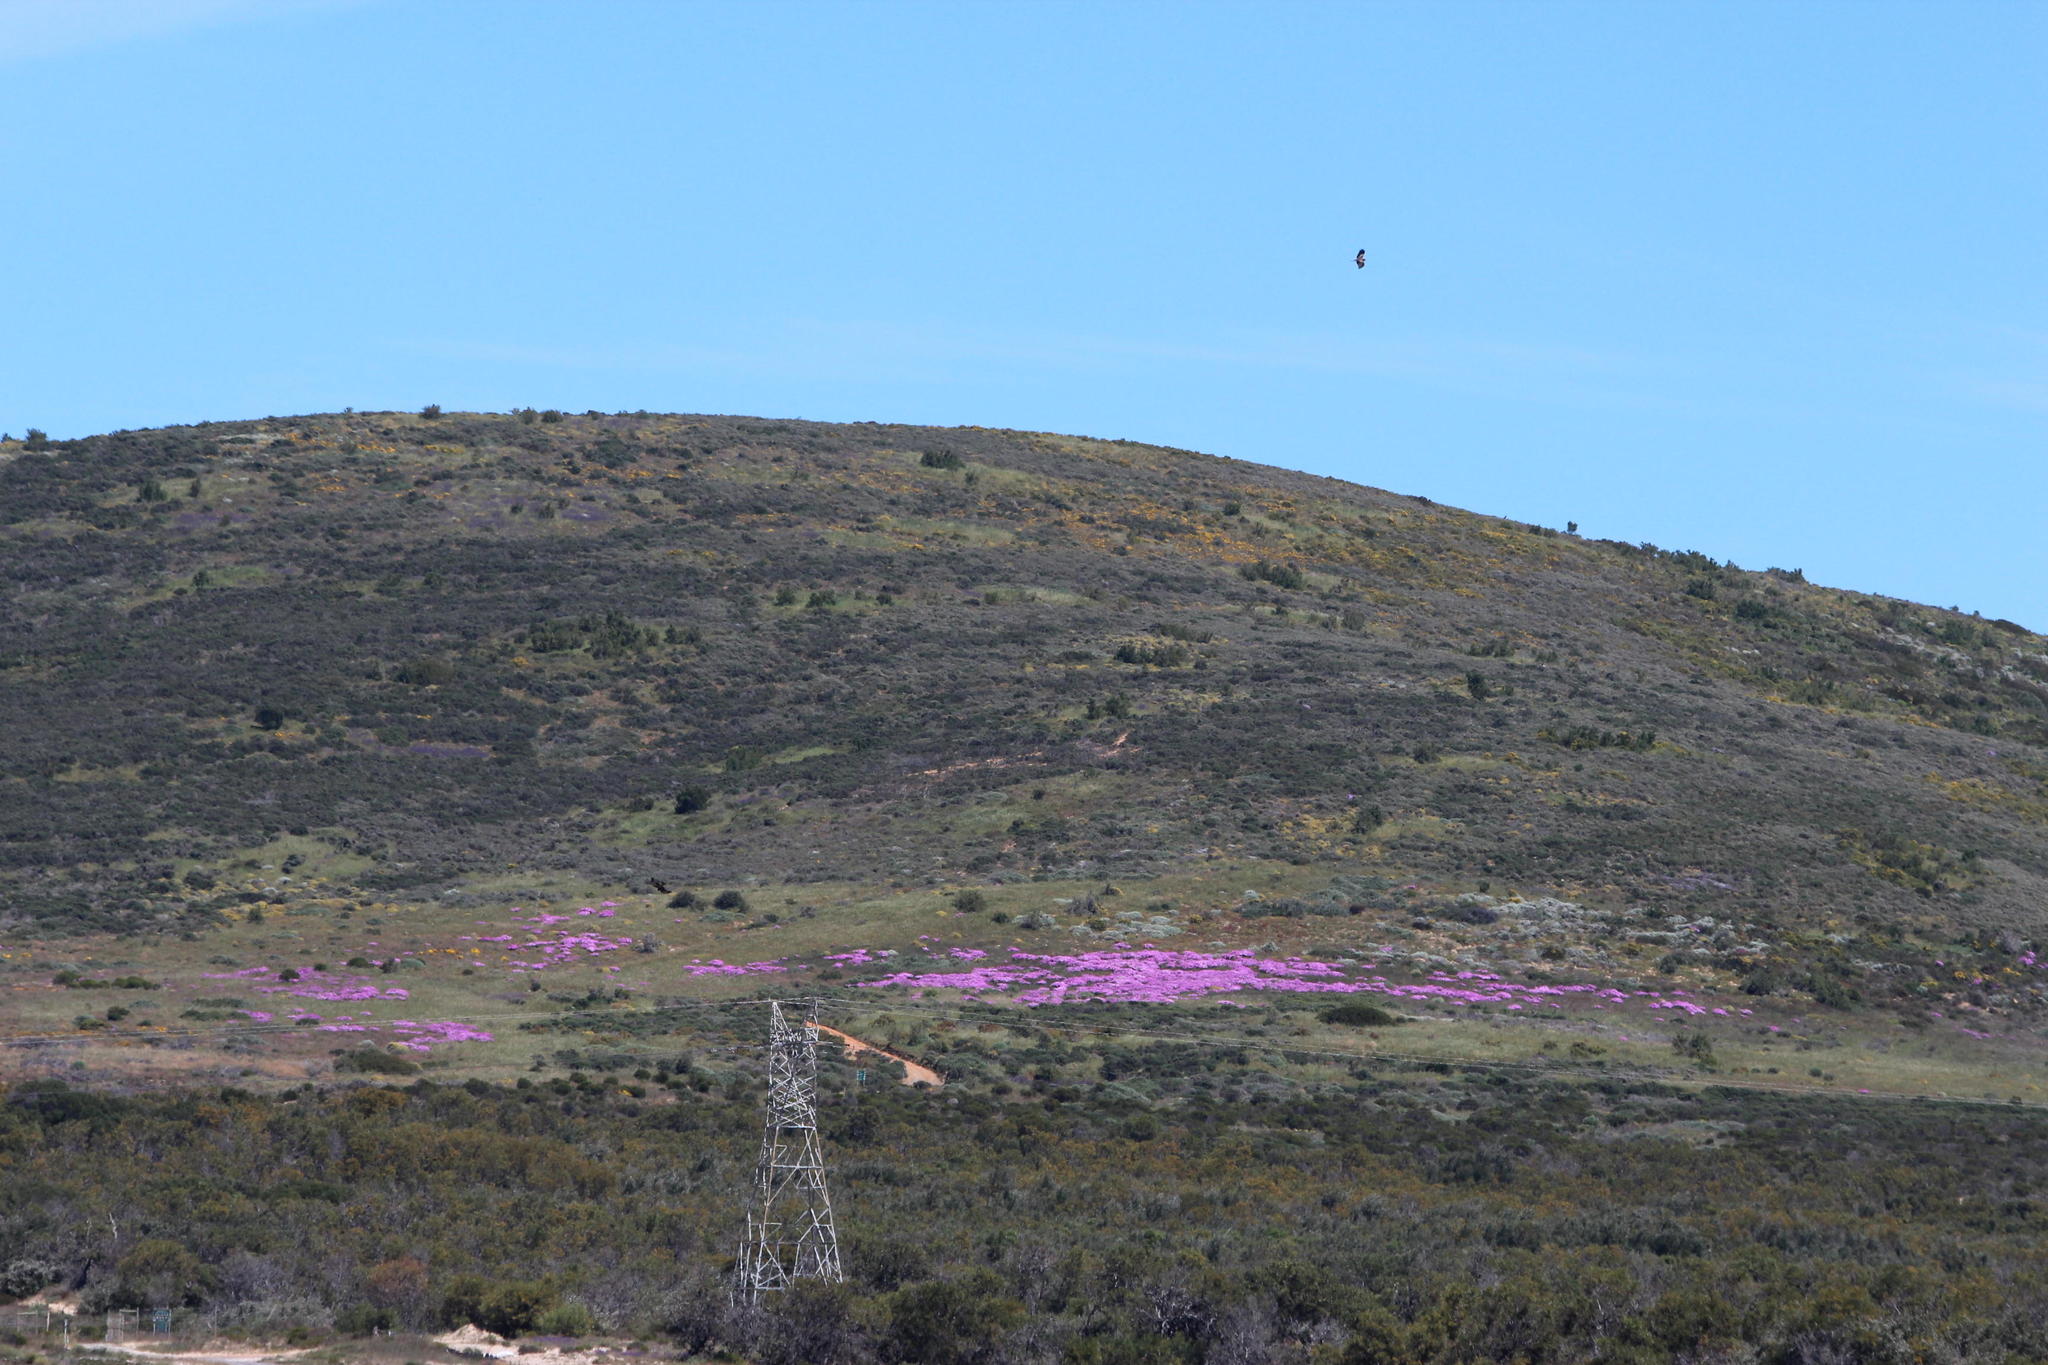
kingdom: Plantae
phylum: Tracheophyta
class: Magnoliopsida
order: Caryophyllales
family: Aizoaceae
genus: Ruschia
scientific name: Ruschia tumidula
